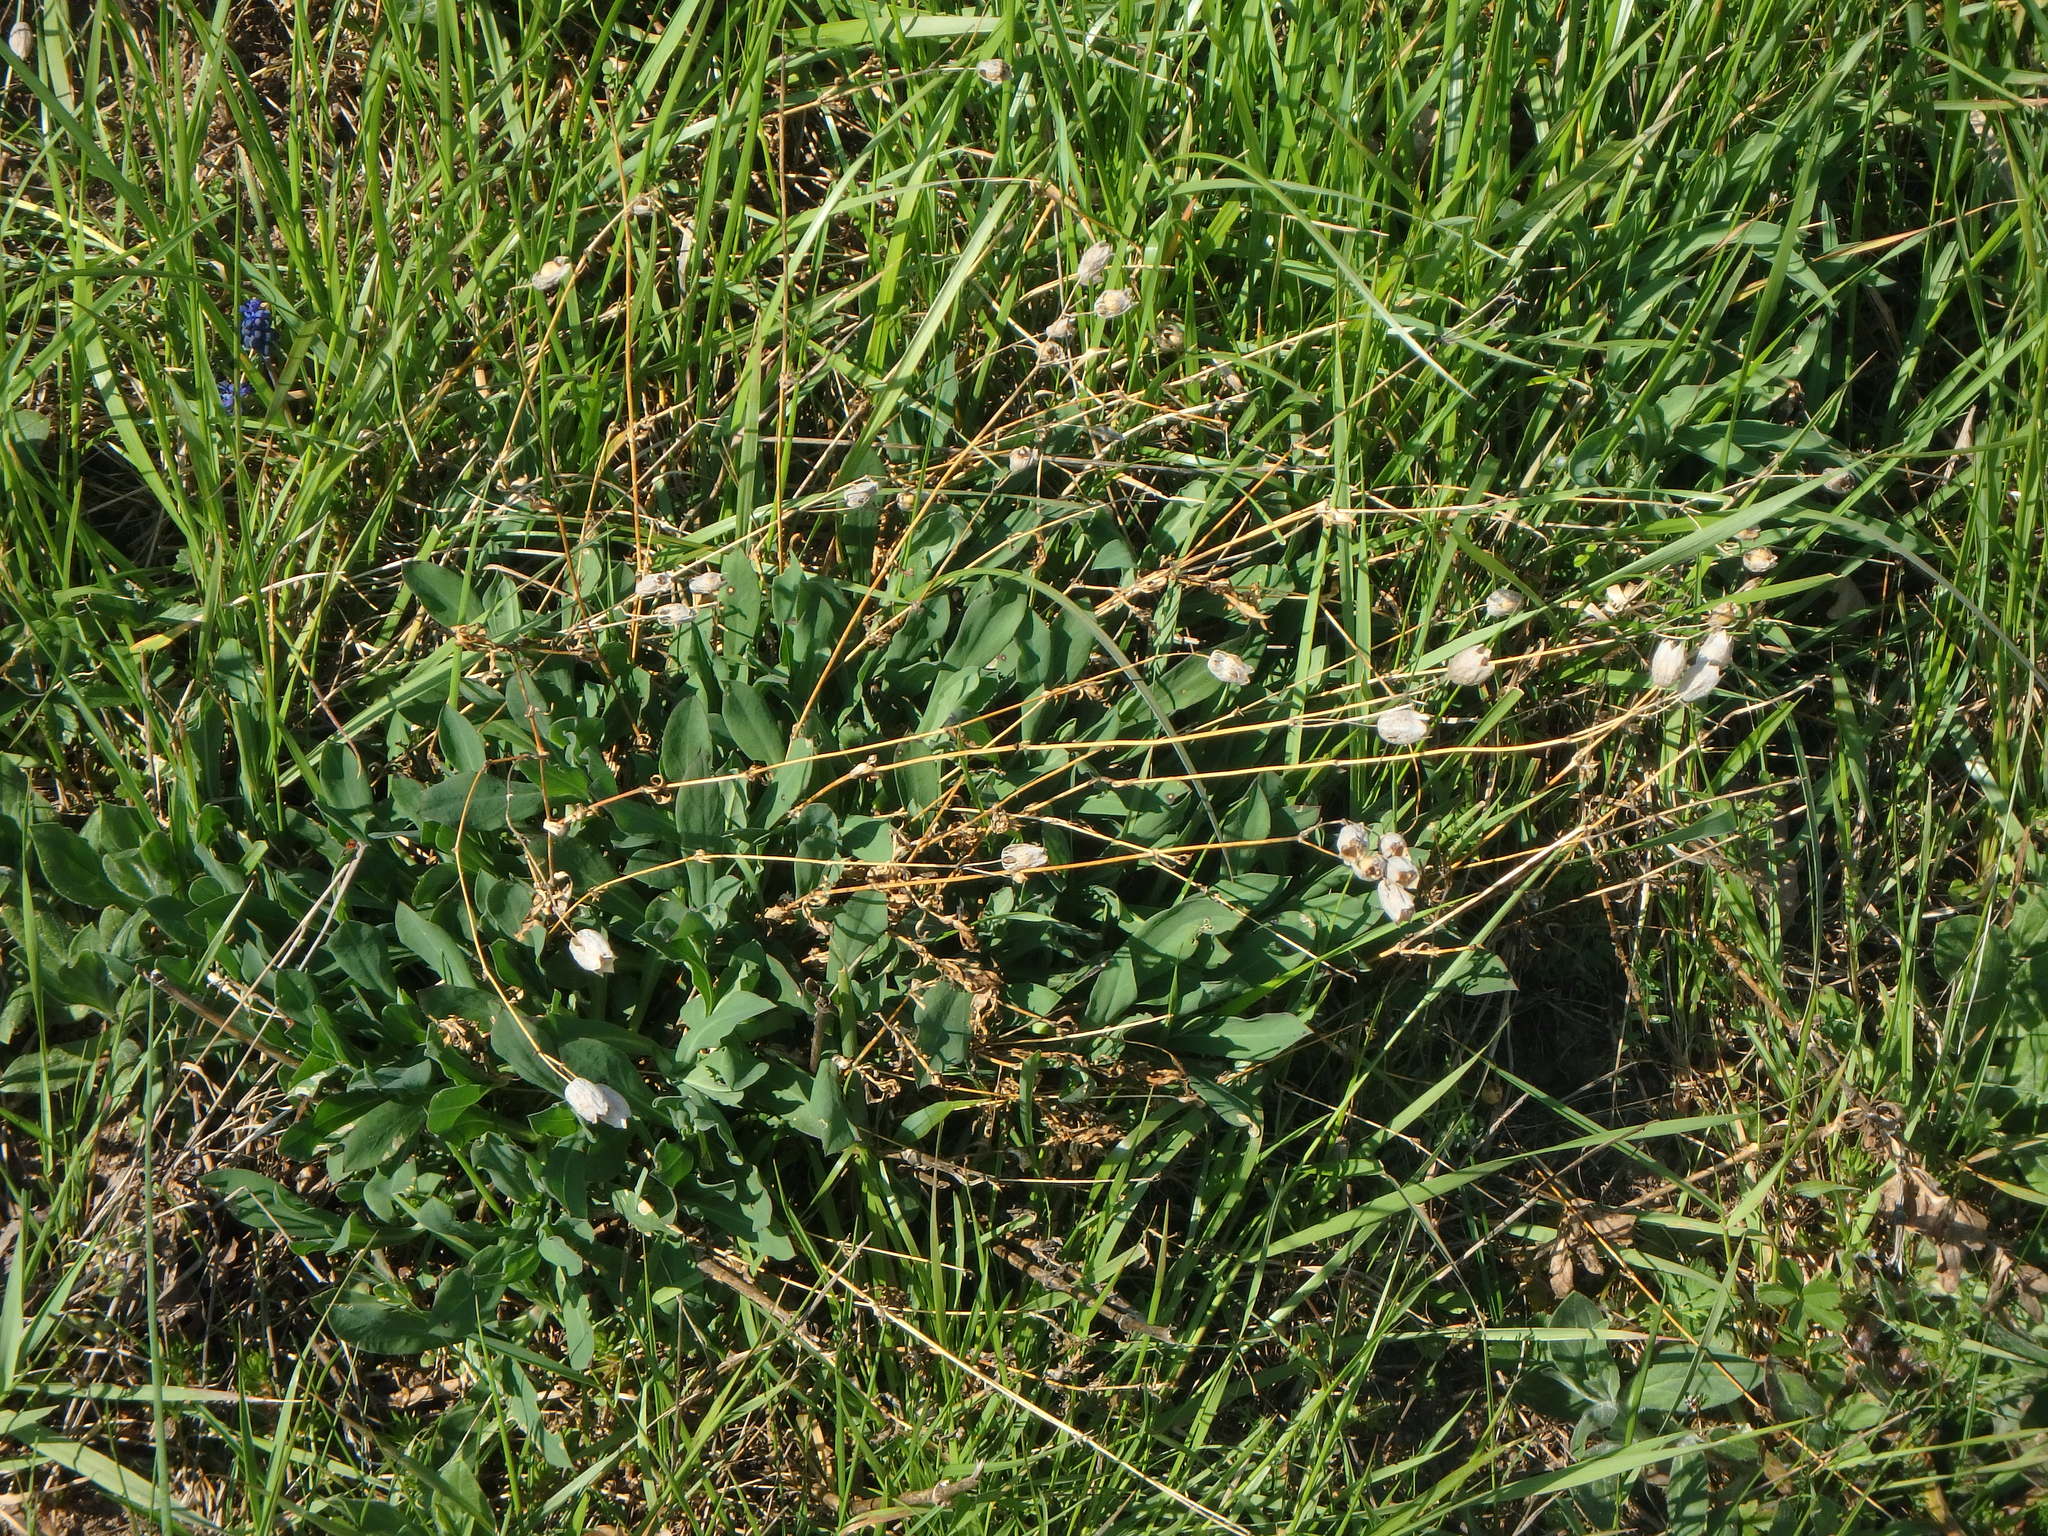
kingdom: Plantae
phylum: Tracheophyta
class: Magnoliopsida
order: Caryophyllales
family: Caryophyllaceae
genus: Silene
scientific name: Silene vulgaris
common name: Bladder campion
